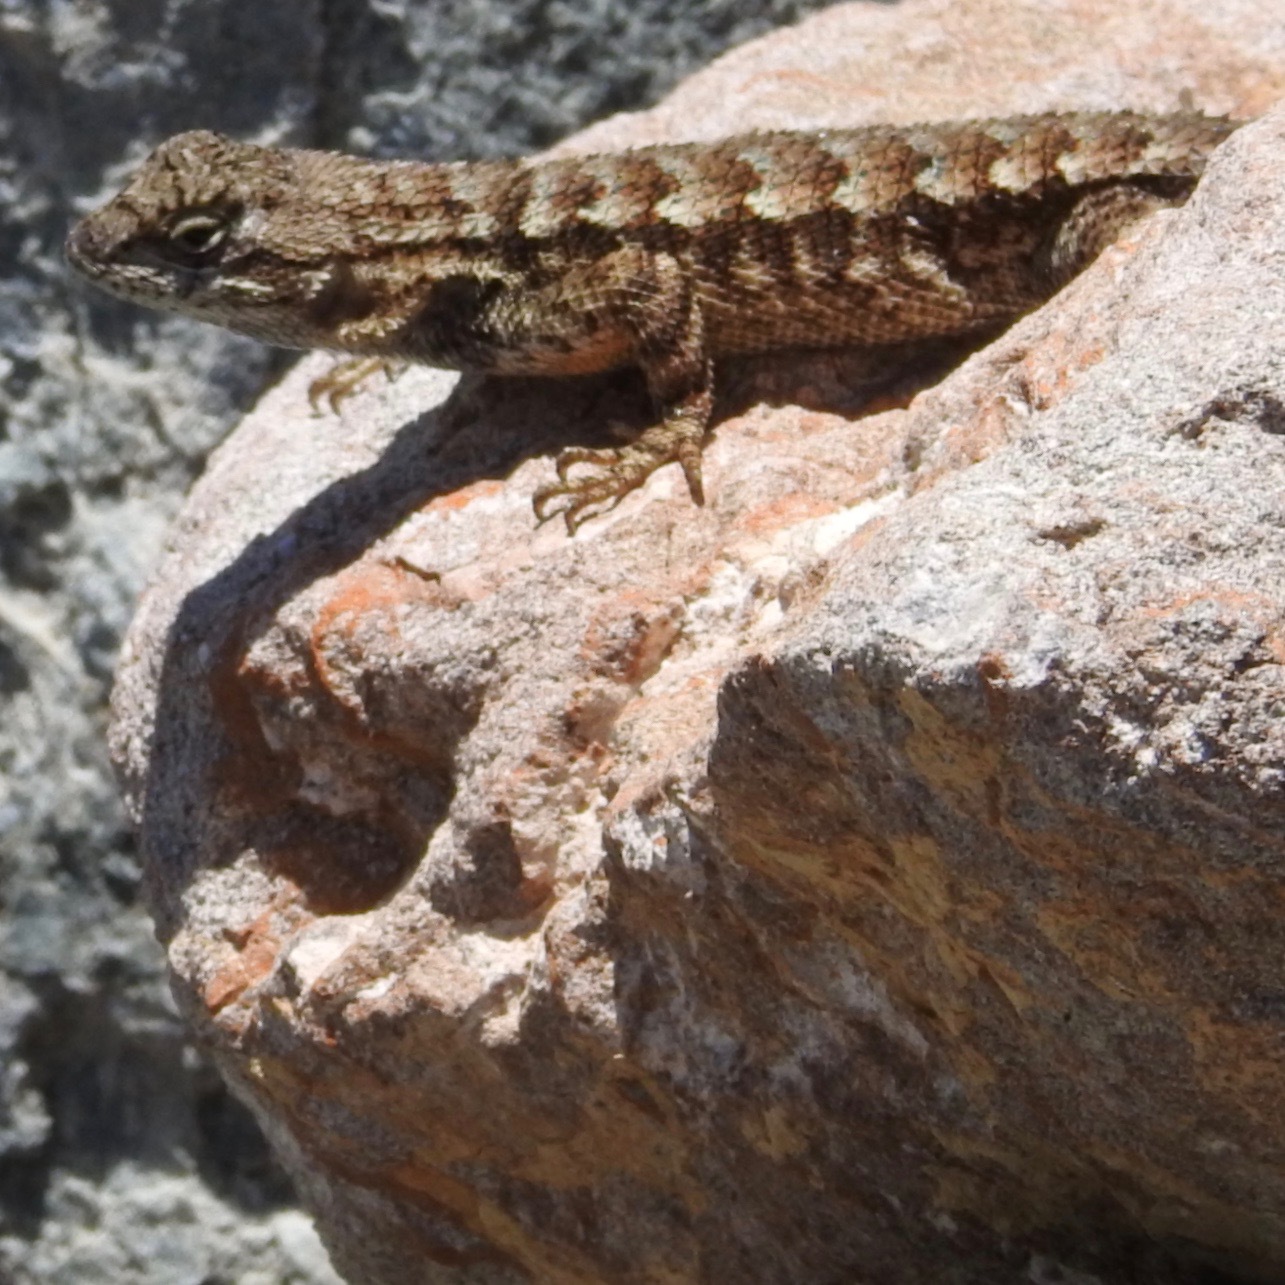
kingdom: Animalia
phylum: Chordata
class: Squamata
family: Phrynosomatidae
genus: Sceloporus
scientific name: Sceloporus occidentalis
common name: Western fence lizard
